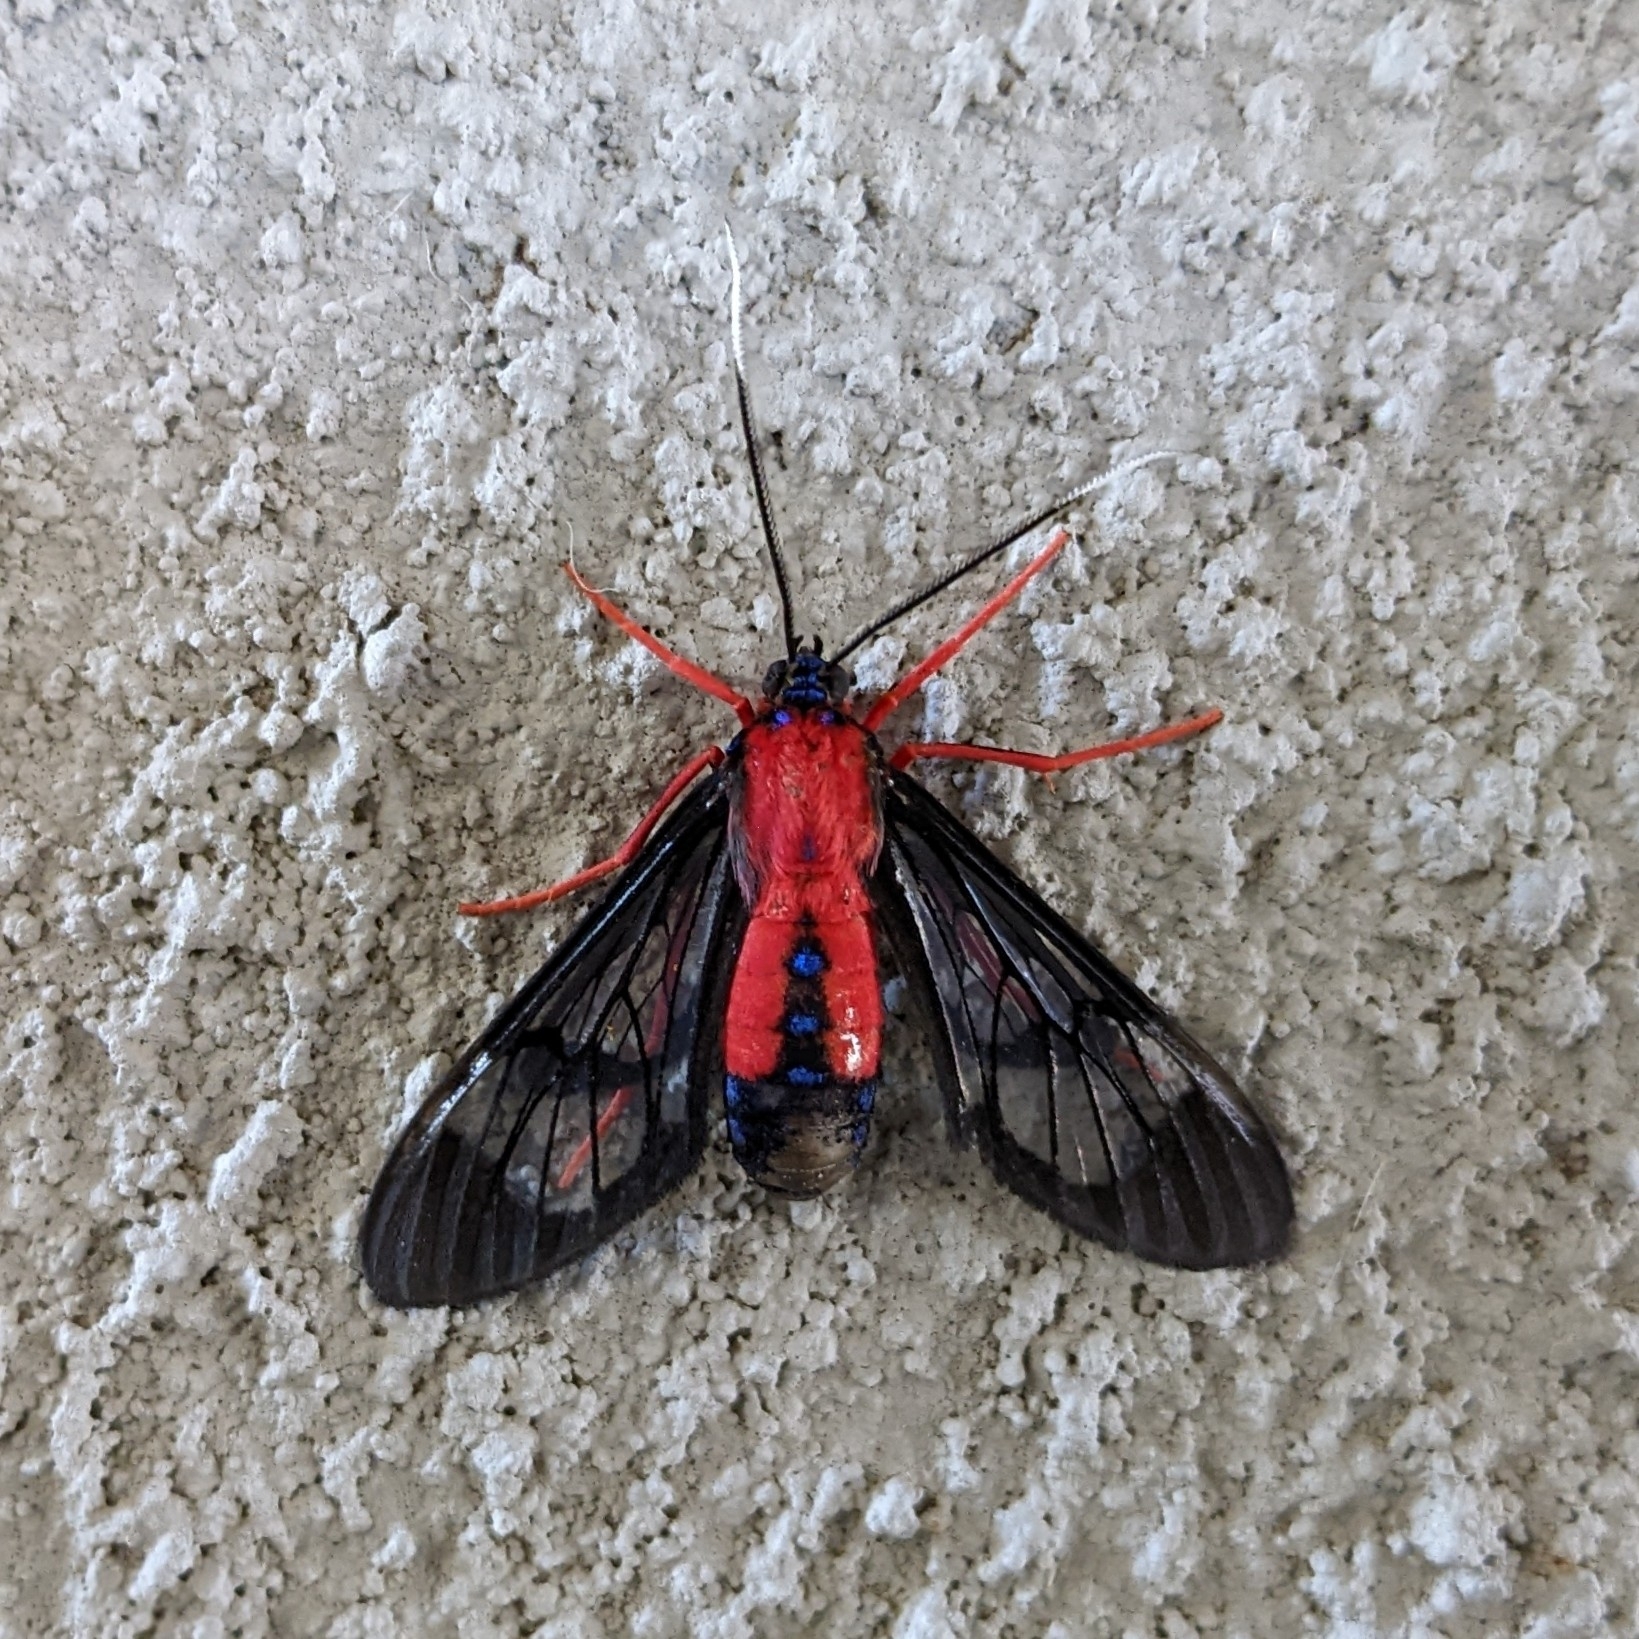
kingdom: Animalia
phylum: Arthropoda
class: Insecta
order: Lepidoptera
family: Erebidae
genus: Cosmosoma
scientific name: Cosmosoma myrodora
